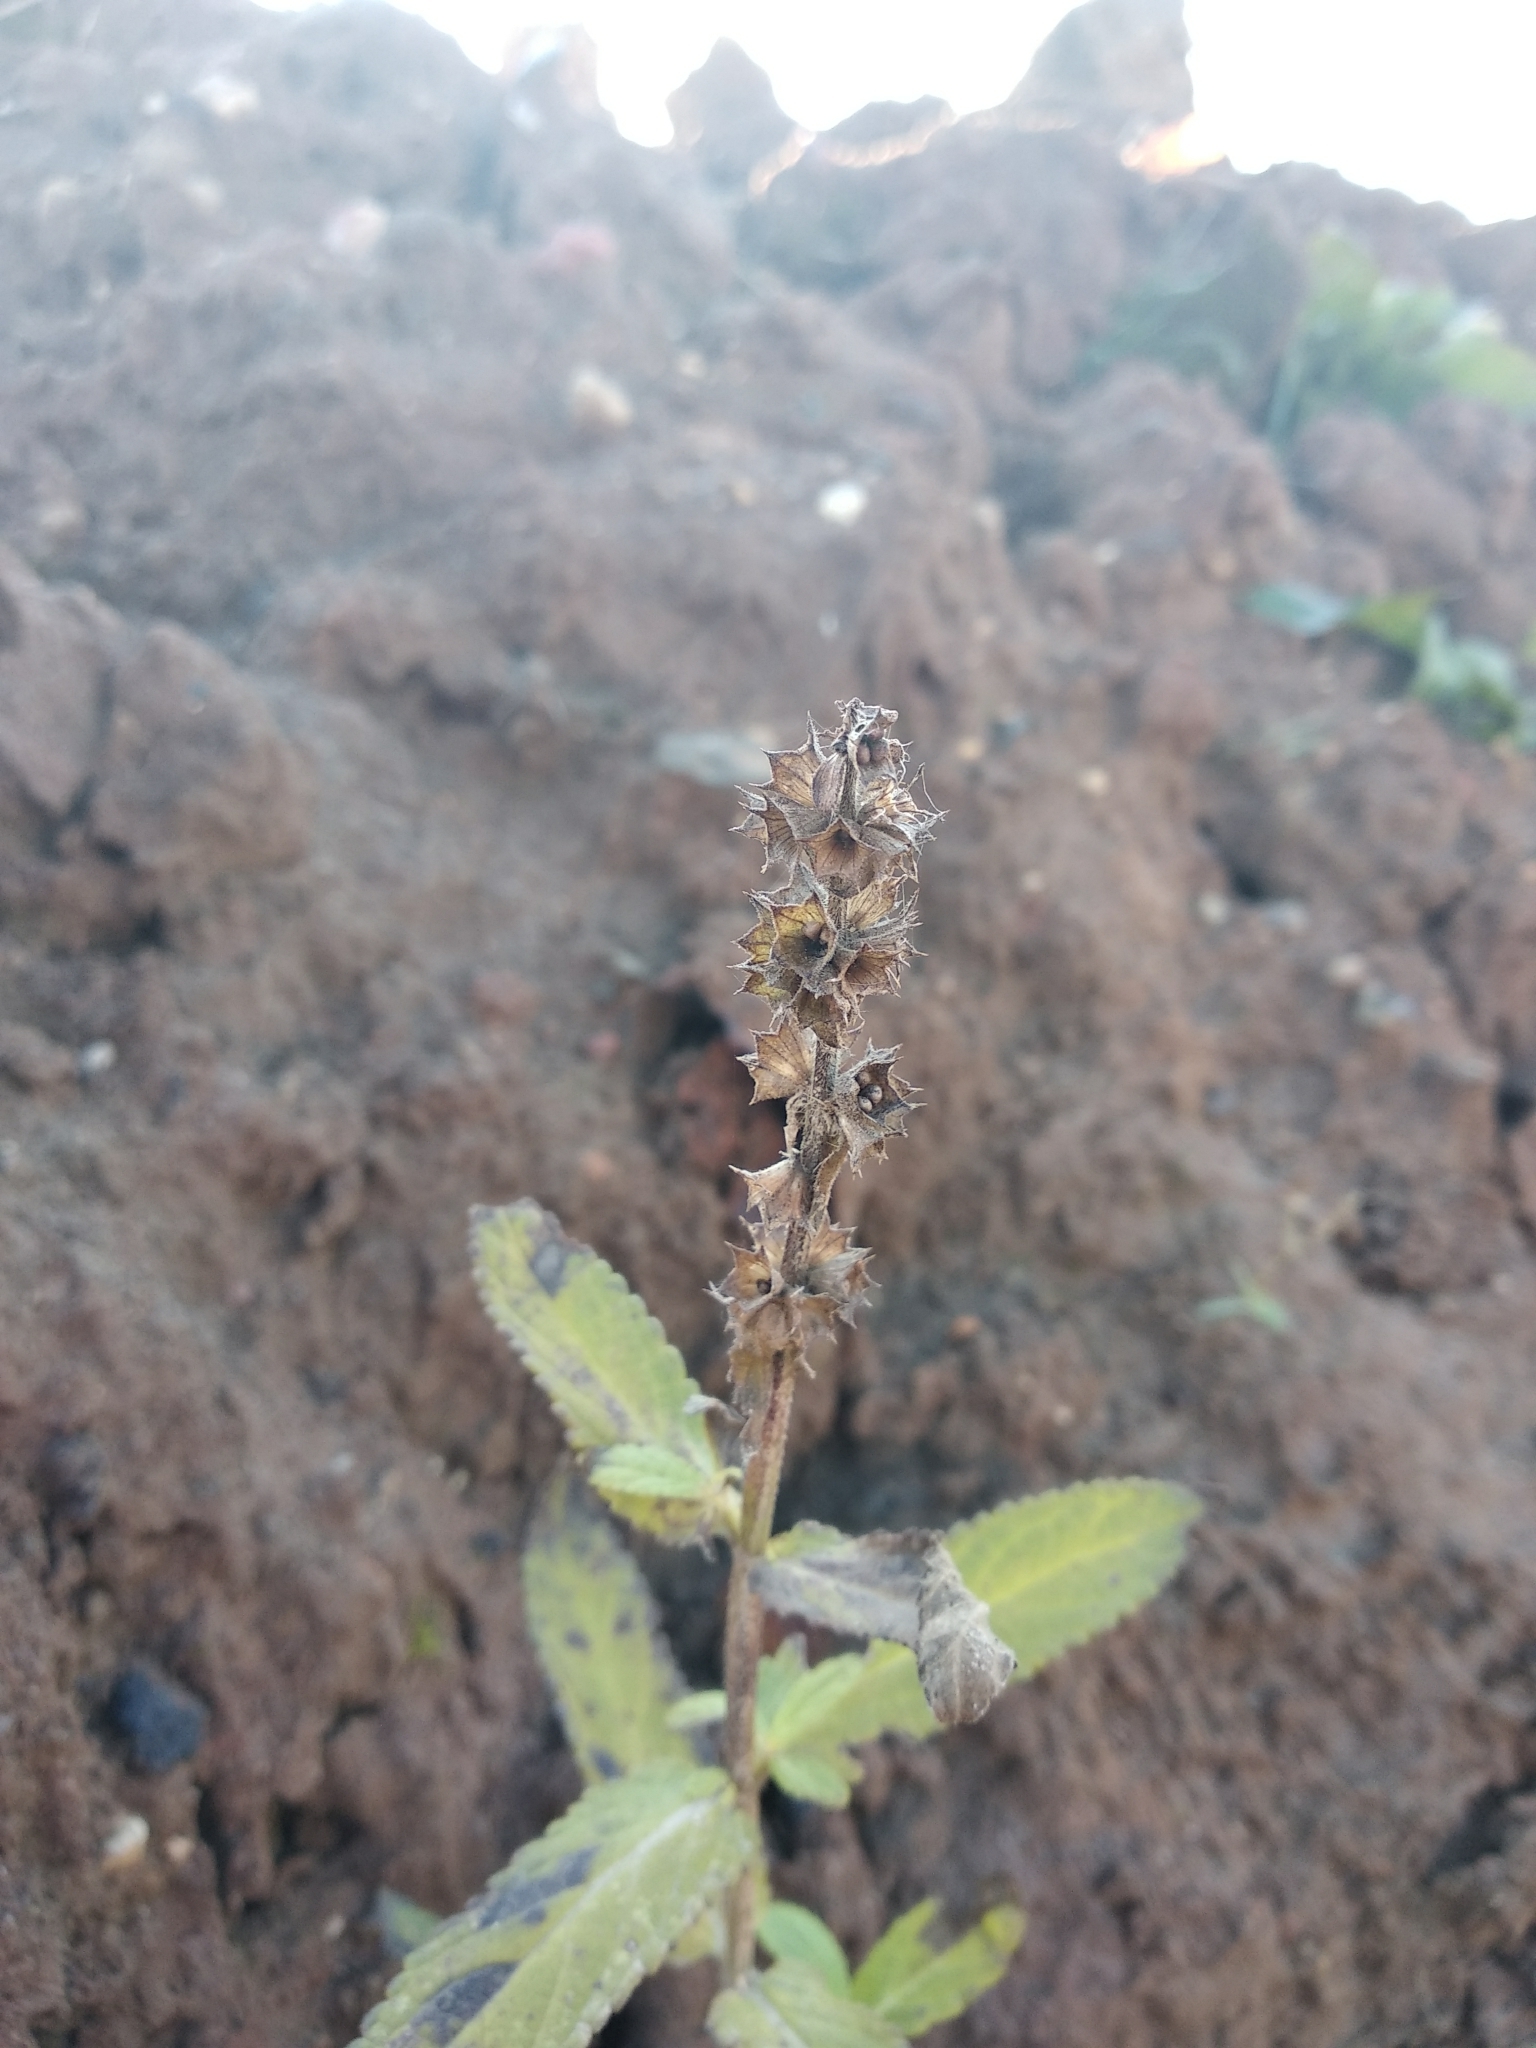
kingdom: Plantae
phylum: Tracheophyta
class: Magnoliopsida
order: Lamiales
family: Lamiaceae
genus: Stachys
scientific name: Stachys palustris
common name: Marsh woundwort
